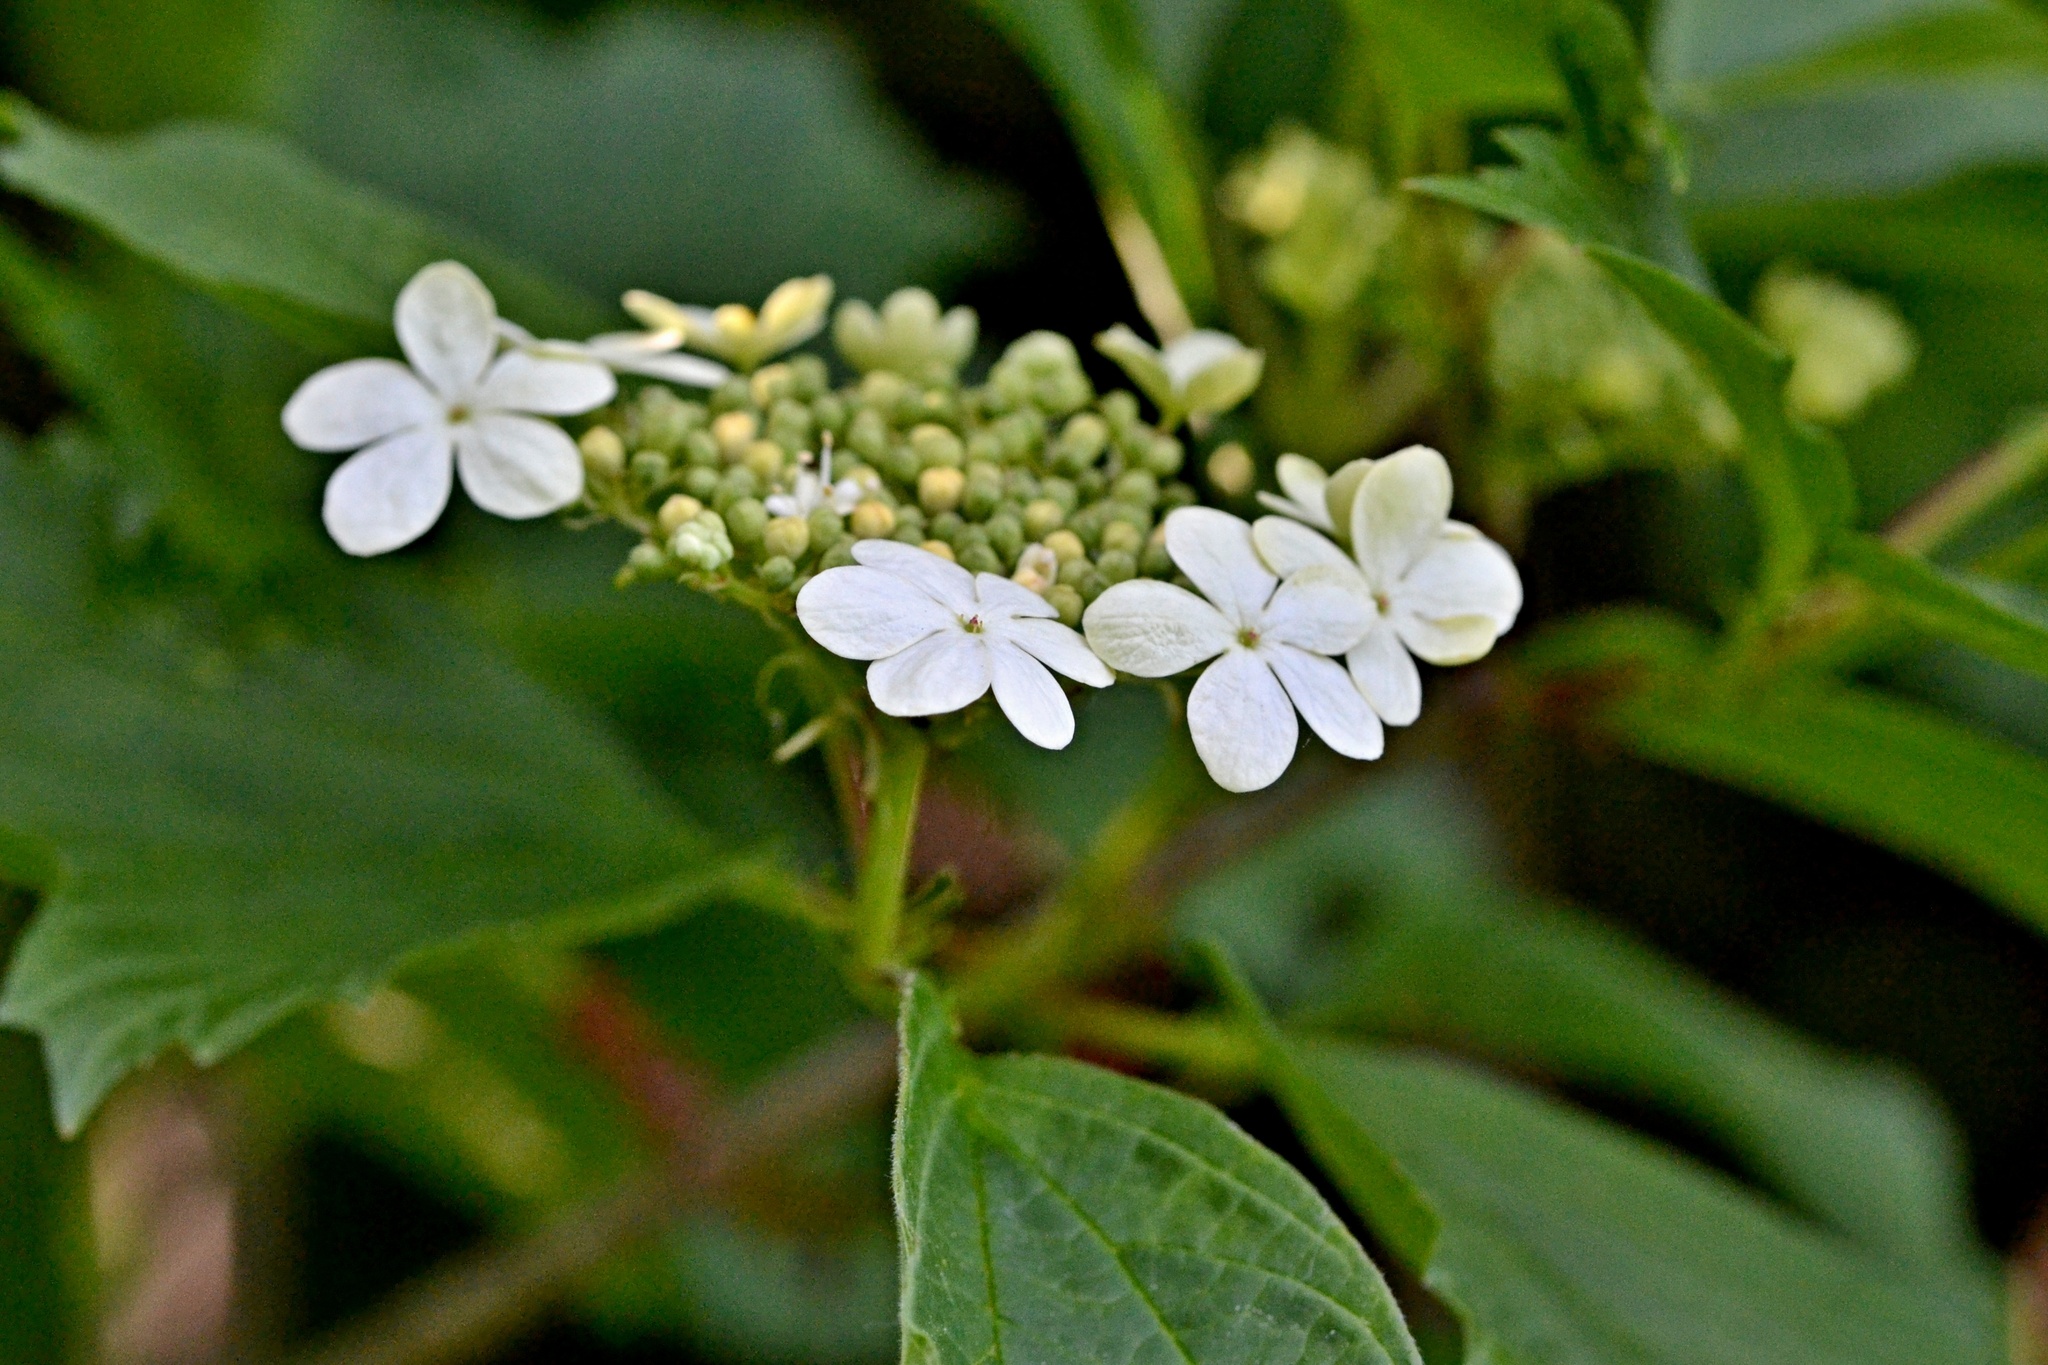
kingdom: Plantae
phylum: Tracheophyta
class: Magnoliopsida
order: Dipsacales
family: Viburnaceae
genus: Viburnum
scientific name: Viburnum opulus
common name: Guelder-rose
